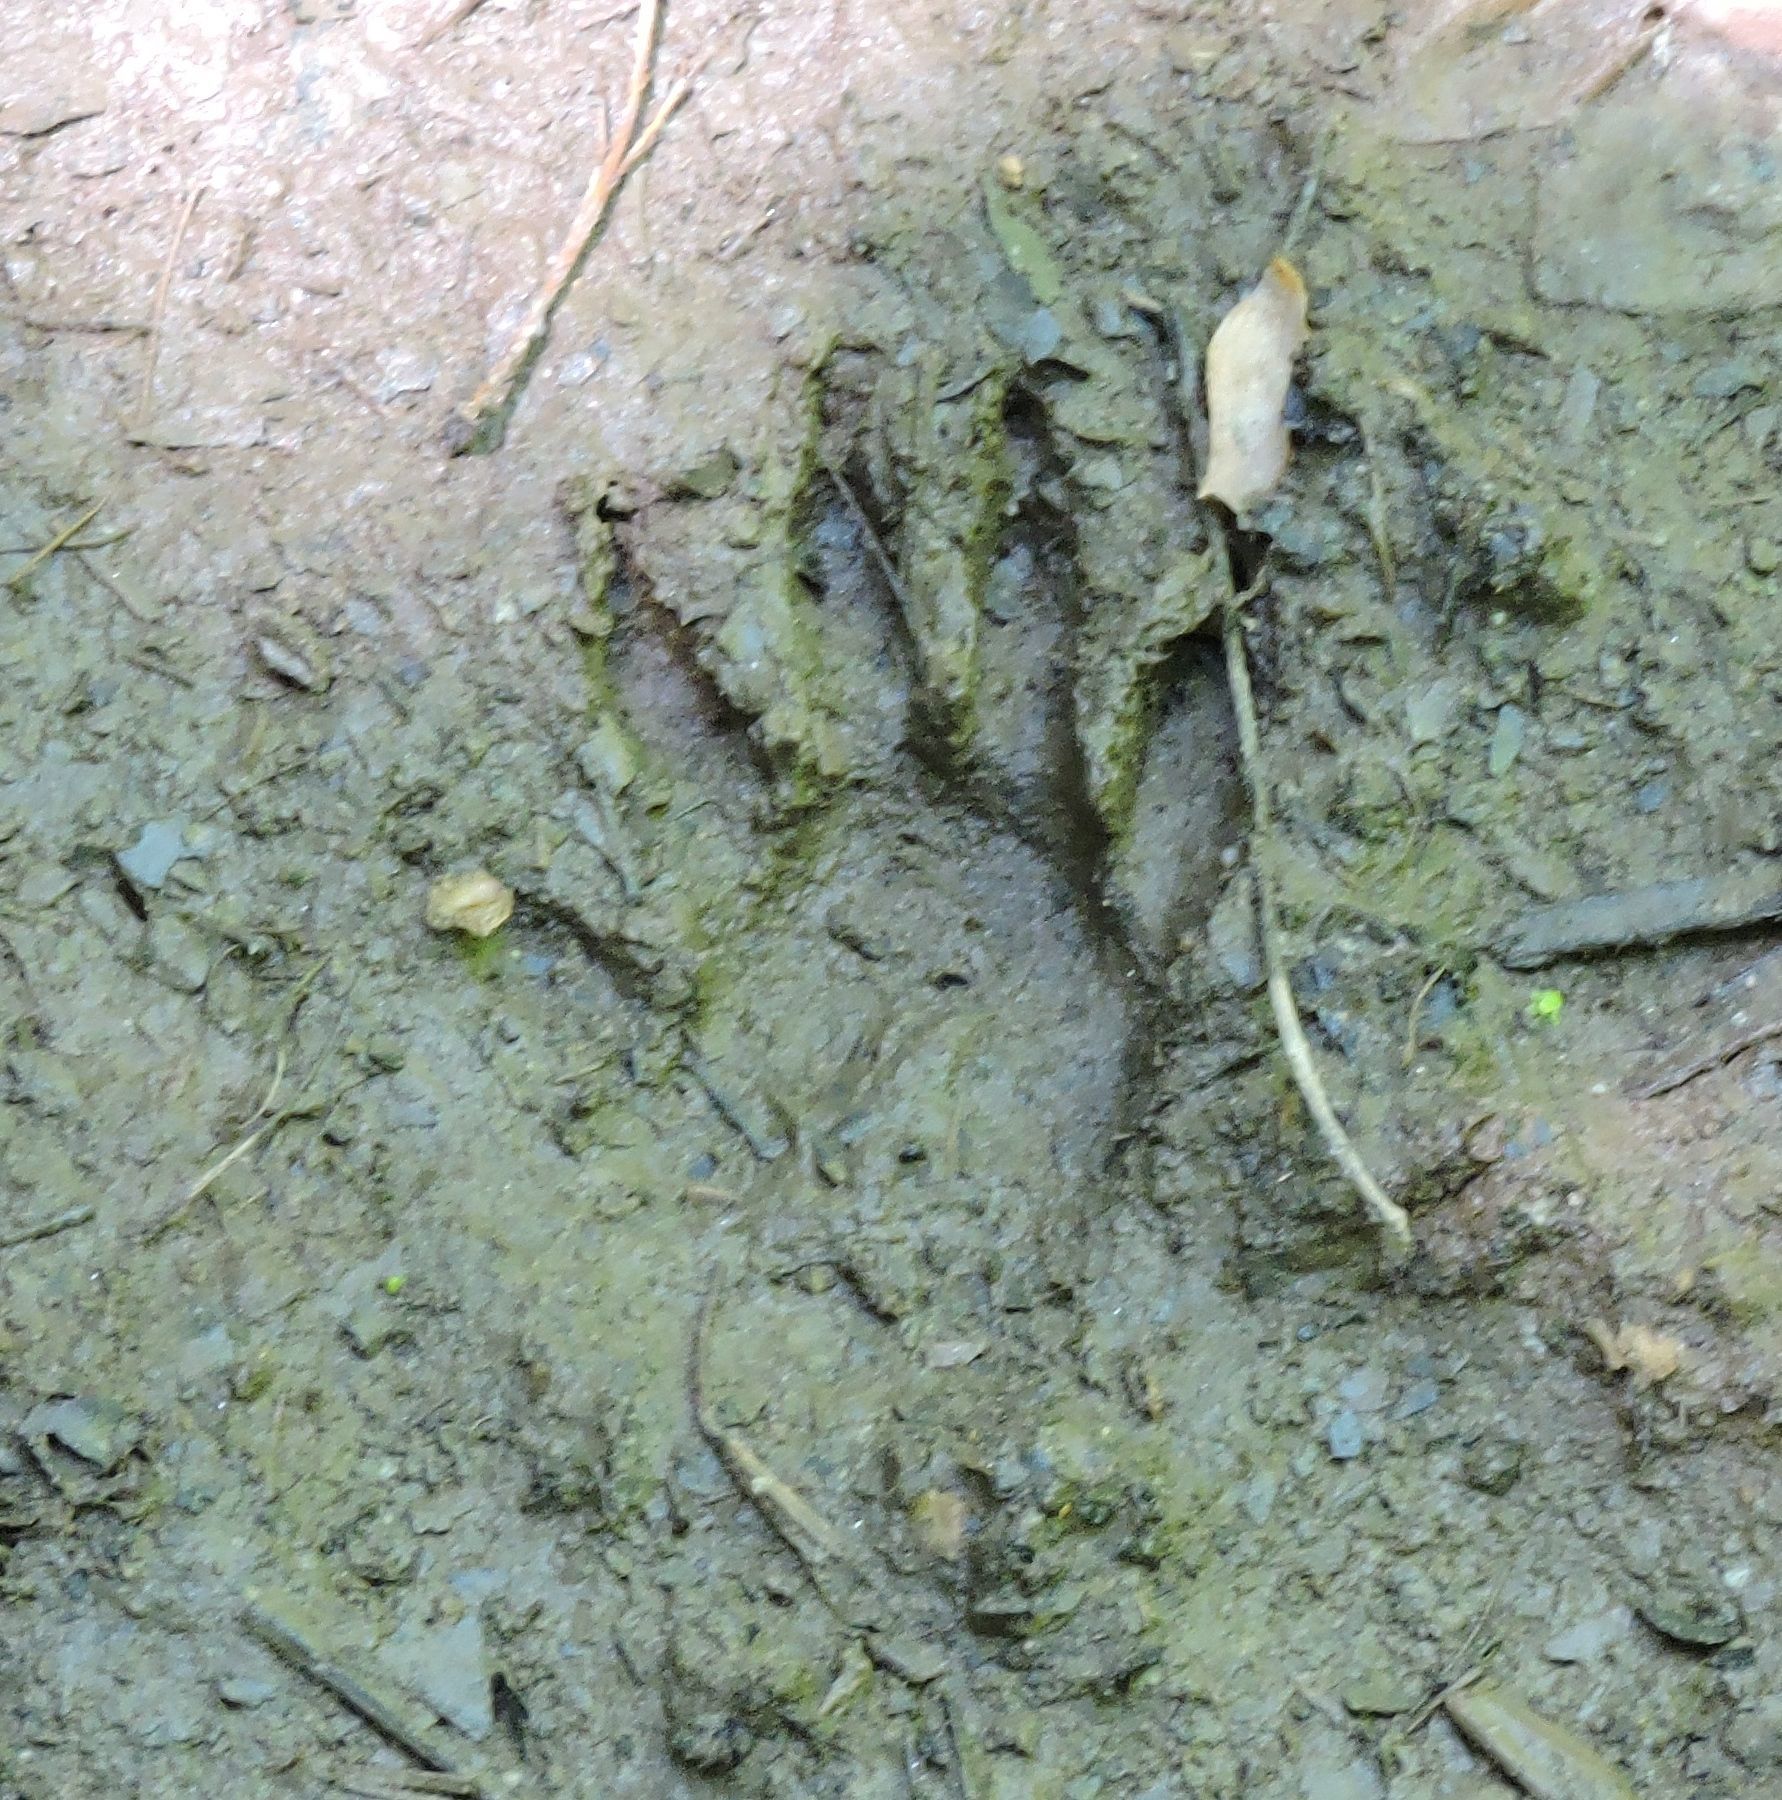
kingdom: Animalia
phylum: Chordata
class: Mammalia
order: Carnivora
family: Procyonidae
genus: Procyon
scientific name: Procyon lotor
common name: Raccoon
